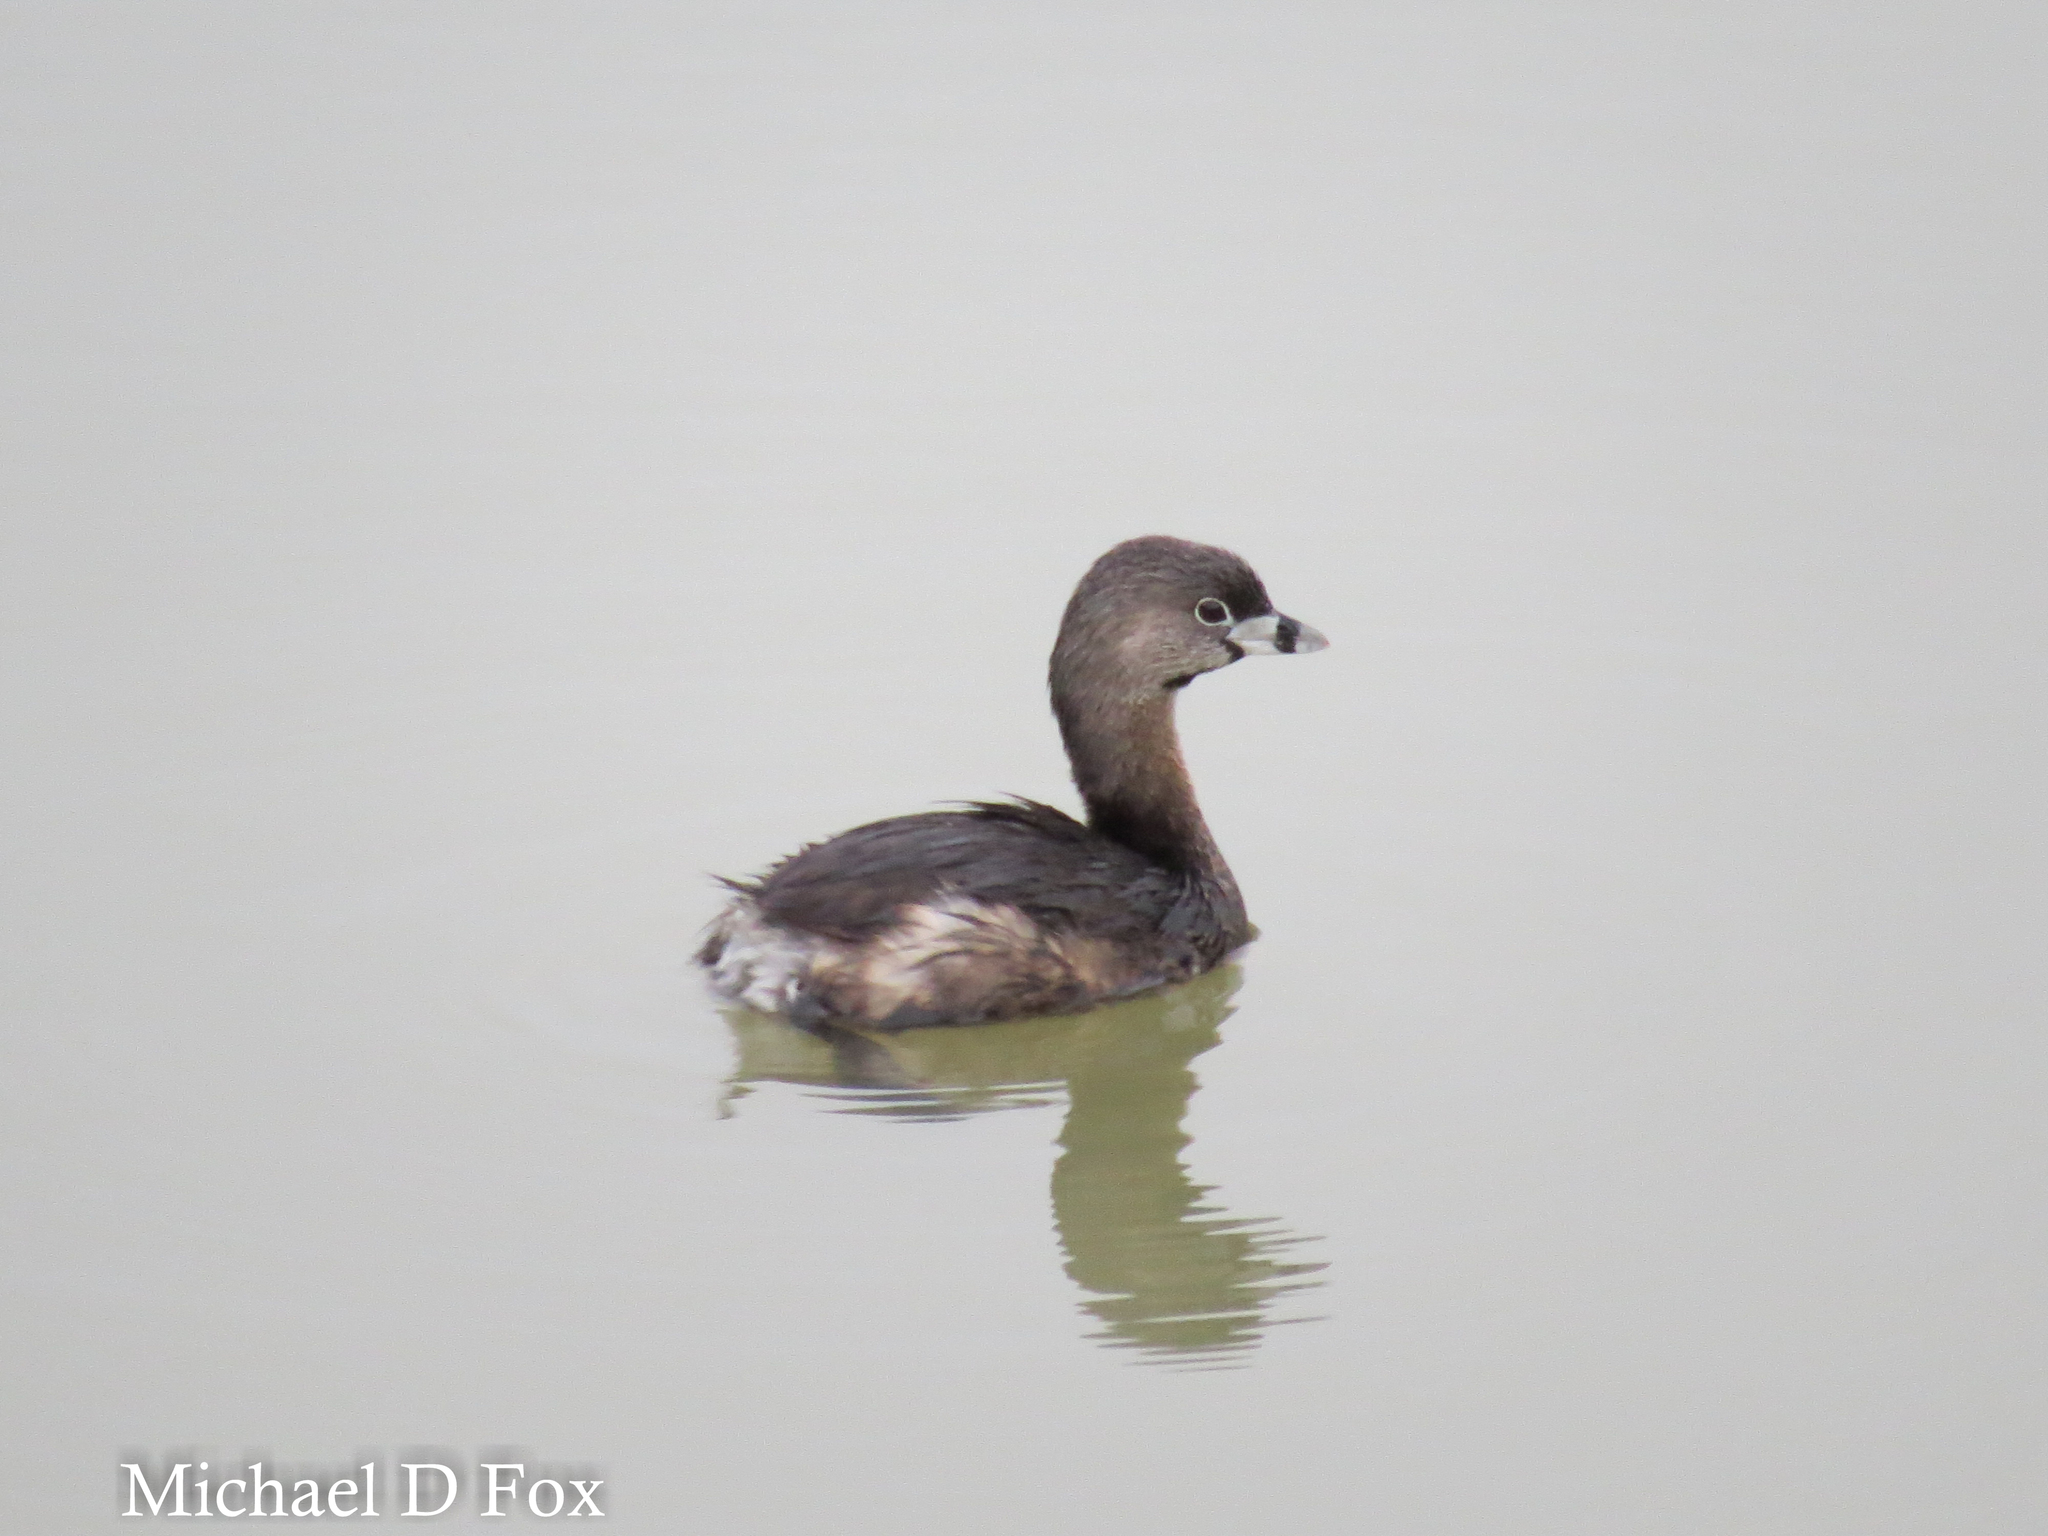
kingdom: Animalia
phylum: Chordata
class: Aves
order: Podicipediformes
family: Podicipedidae
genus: Podilymbus
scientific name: Podilymbus podiceps
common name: Pied-billed grebe
